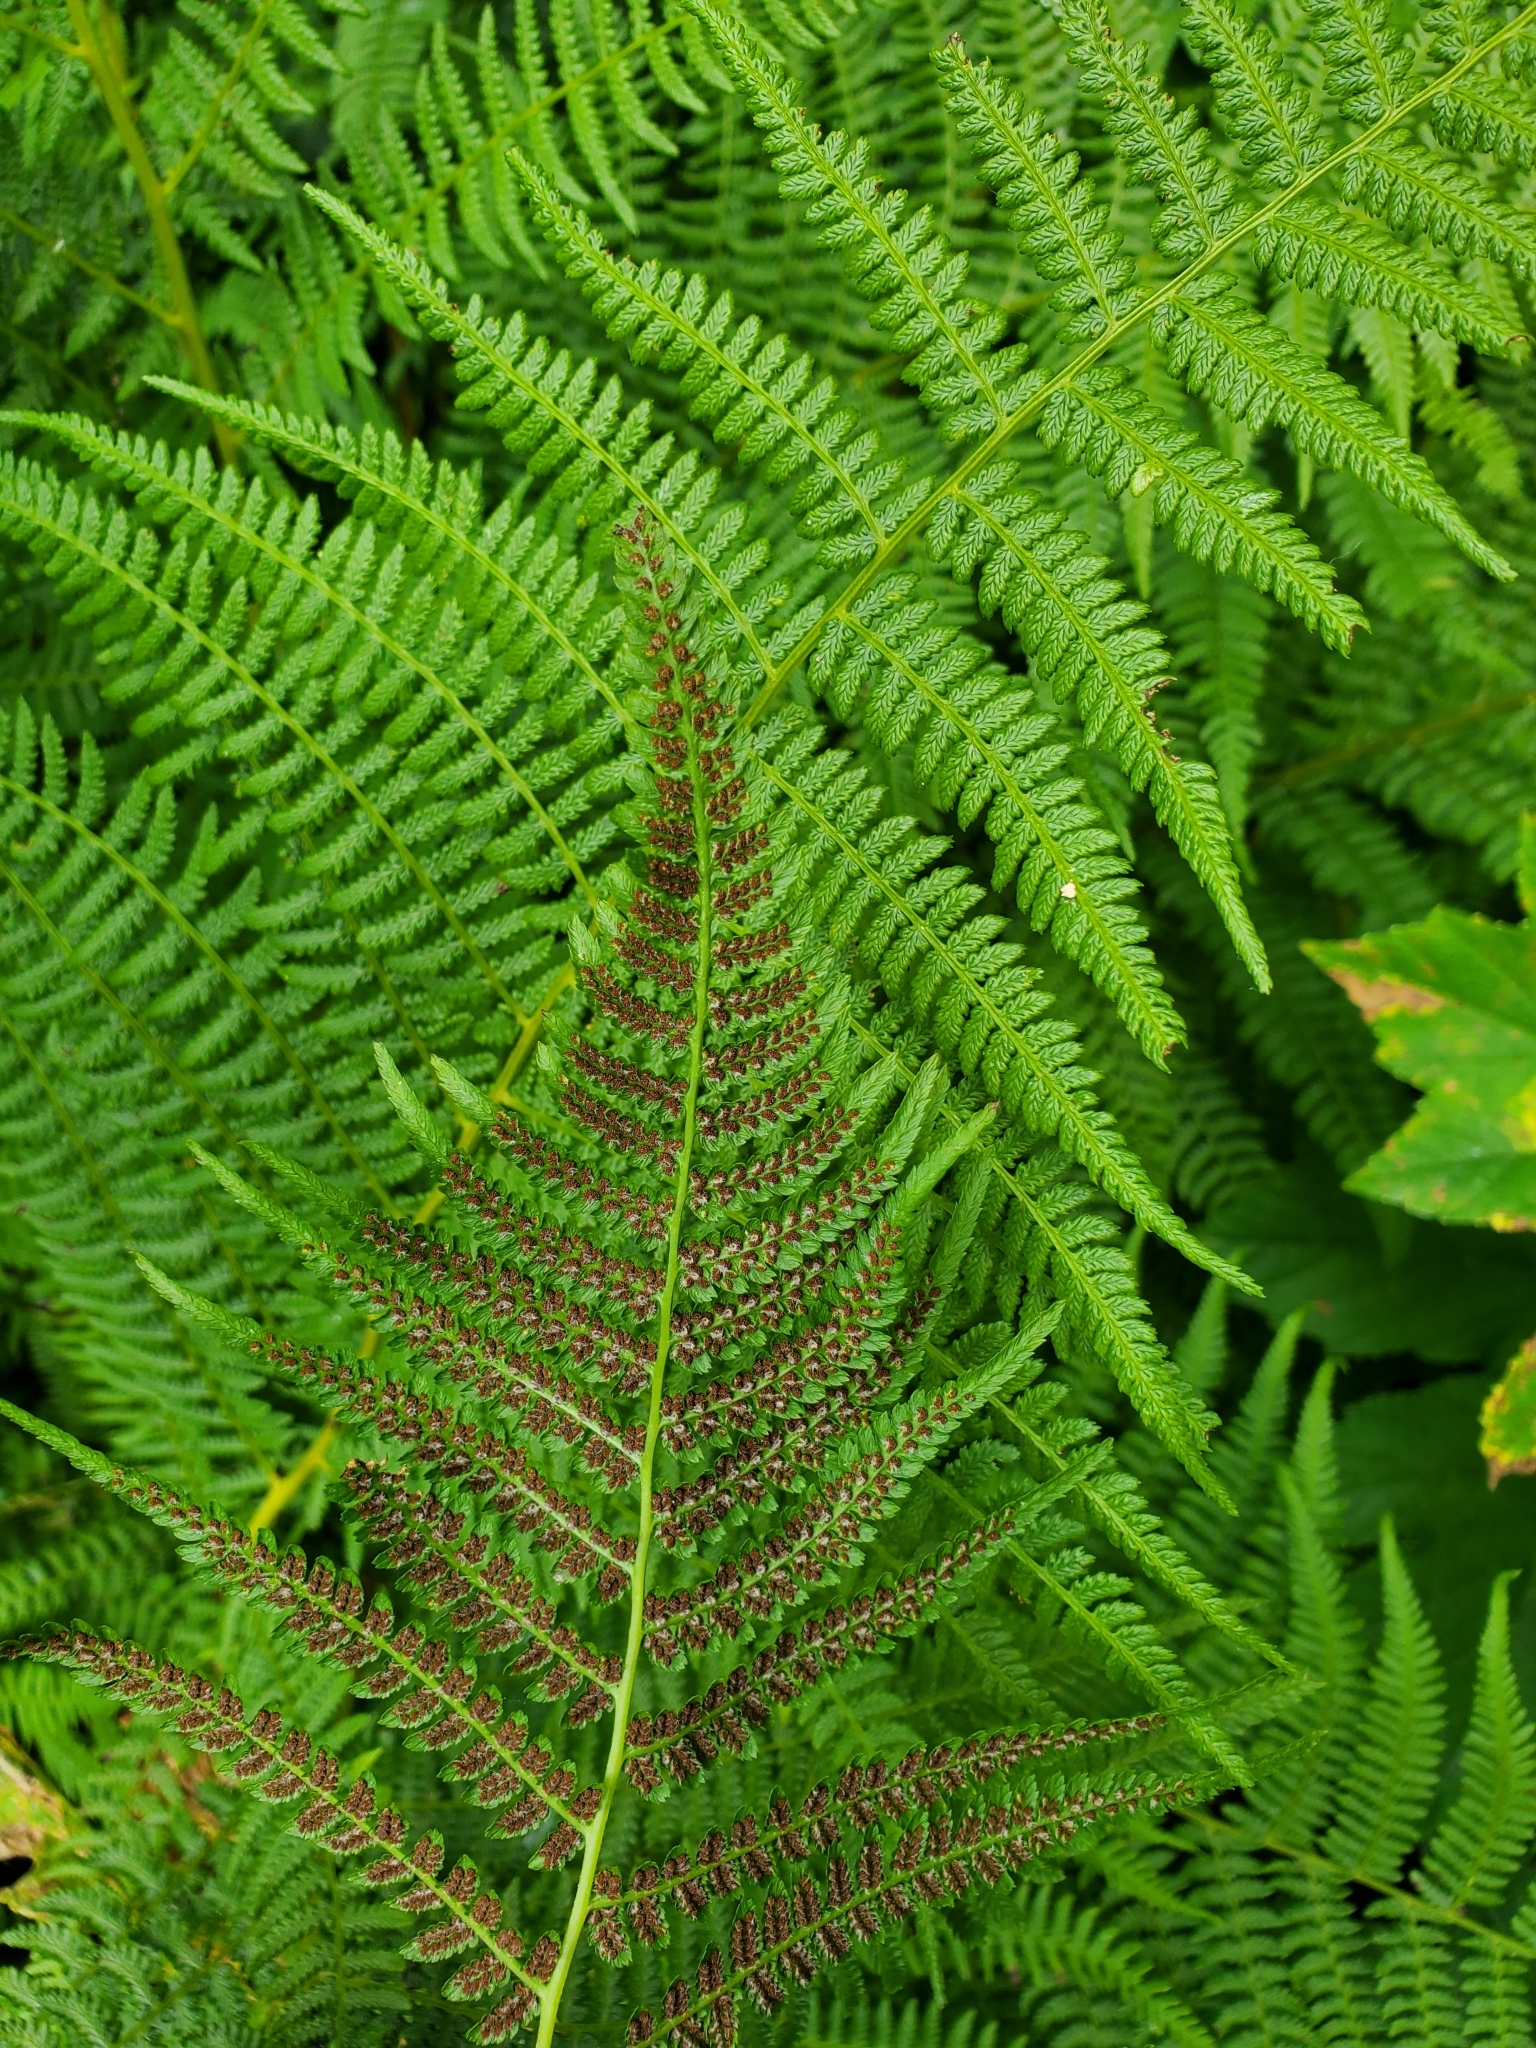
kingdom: Plantae
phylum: Tracheophyta
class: Polypodiopsida
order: Polypodiales
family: Athyriaceae
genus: Athyrium
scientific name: Athyrium filix-femina
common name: Lady fern
